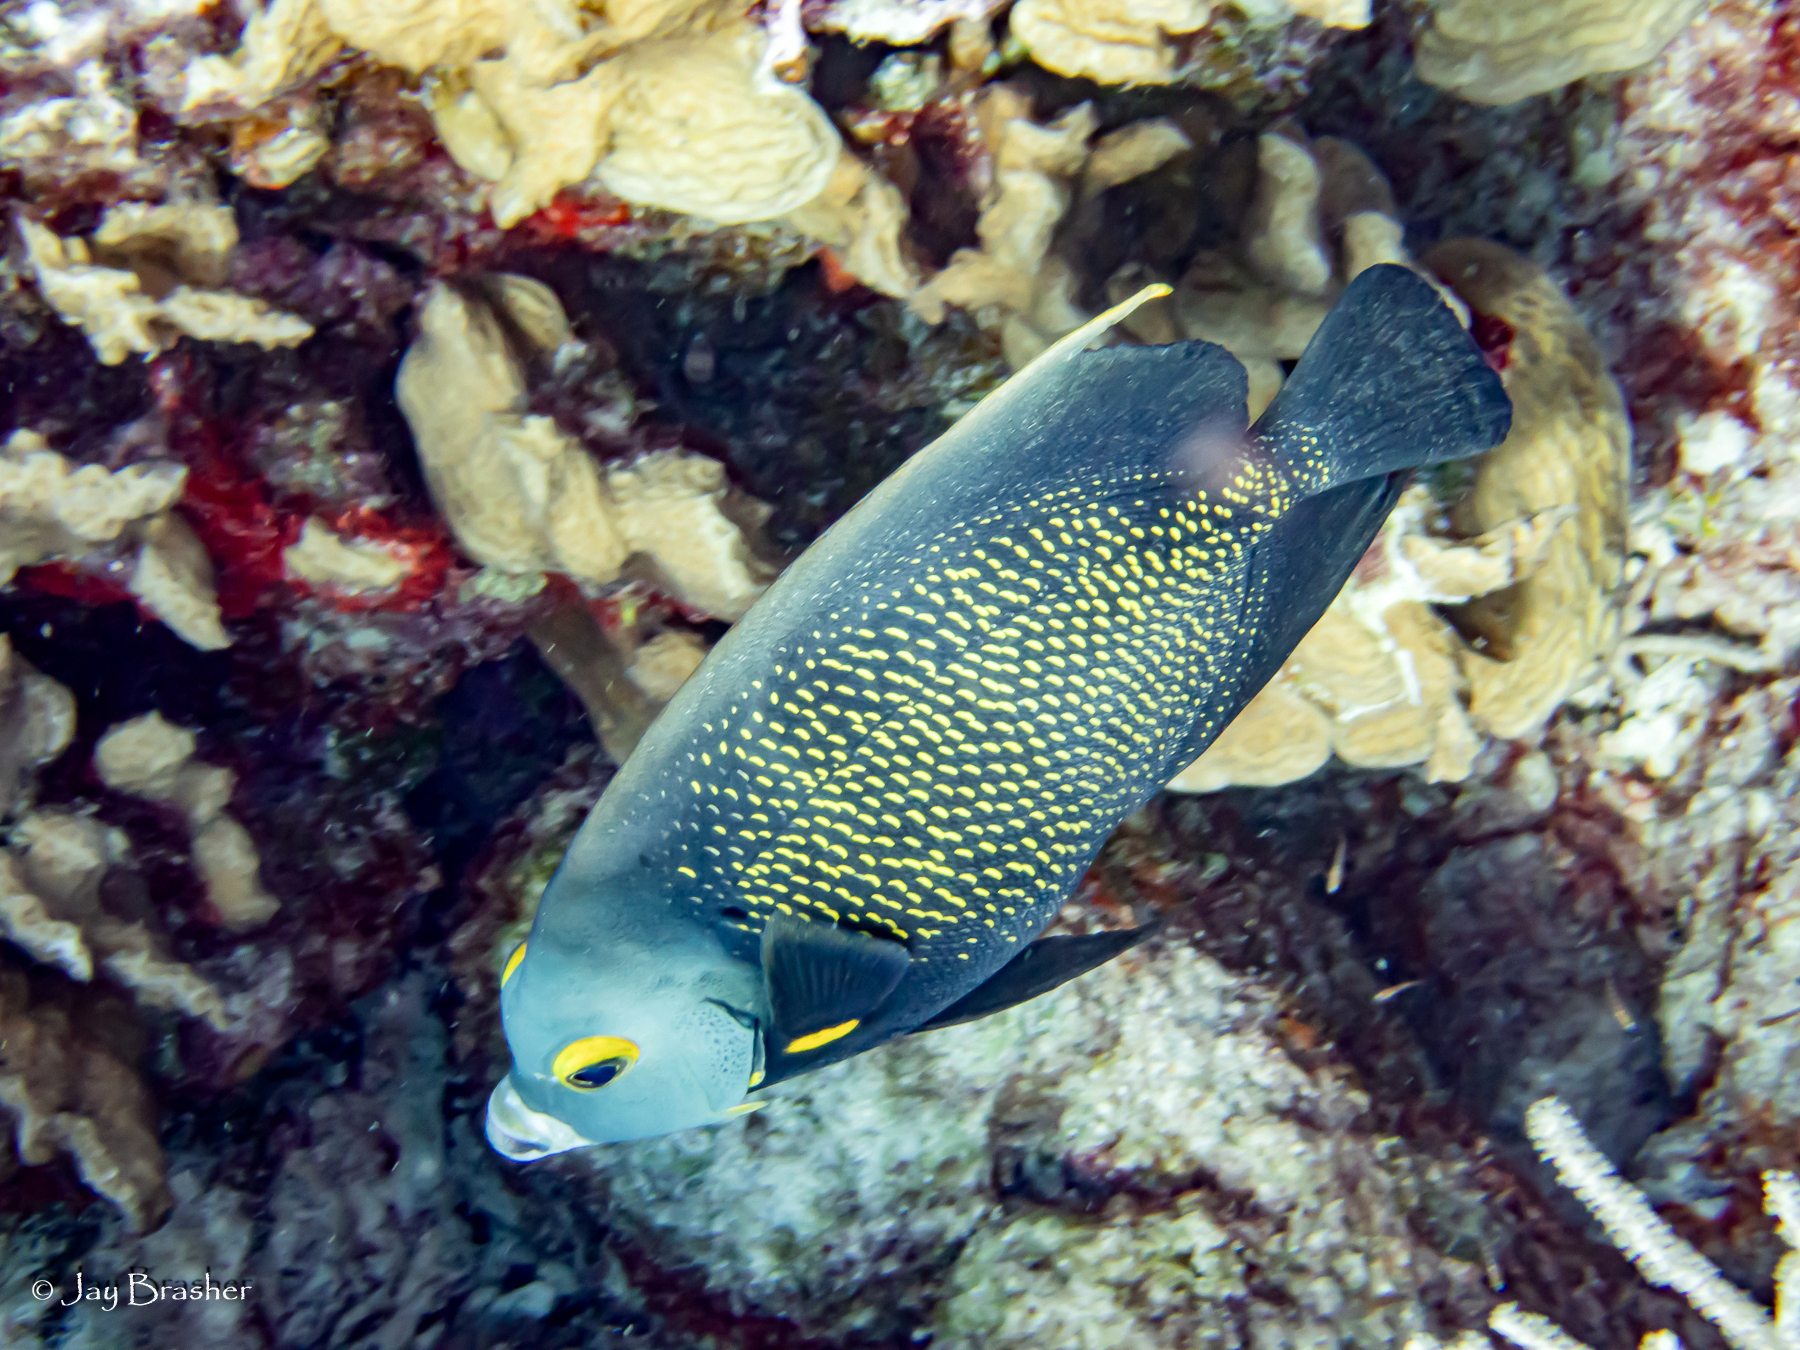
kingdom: Animalia
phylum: Chordata
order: Perciformes
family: Pomacanthidae
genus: Pomacanthus
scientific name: Pomacanthus paru
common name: French angelfish
